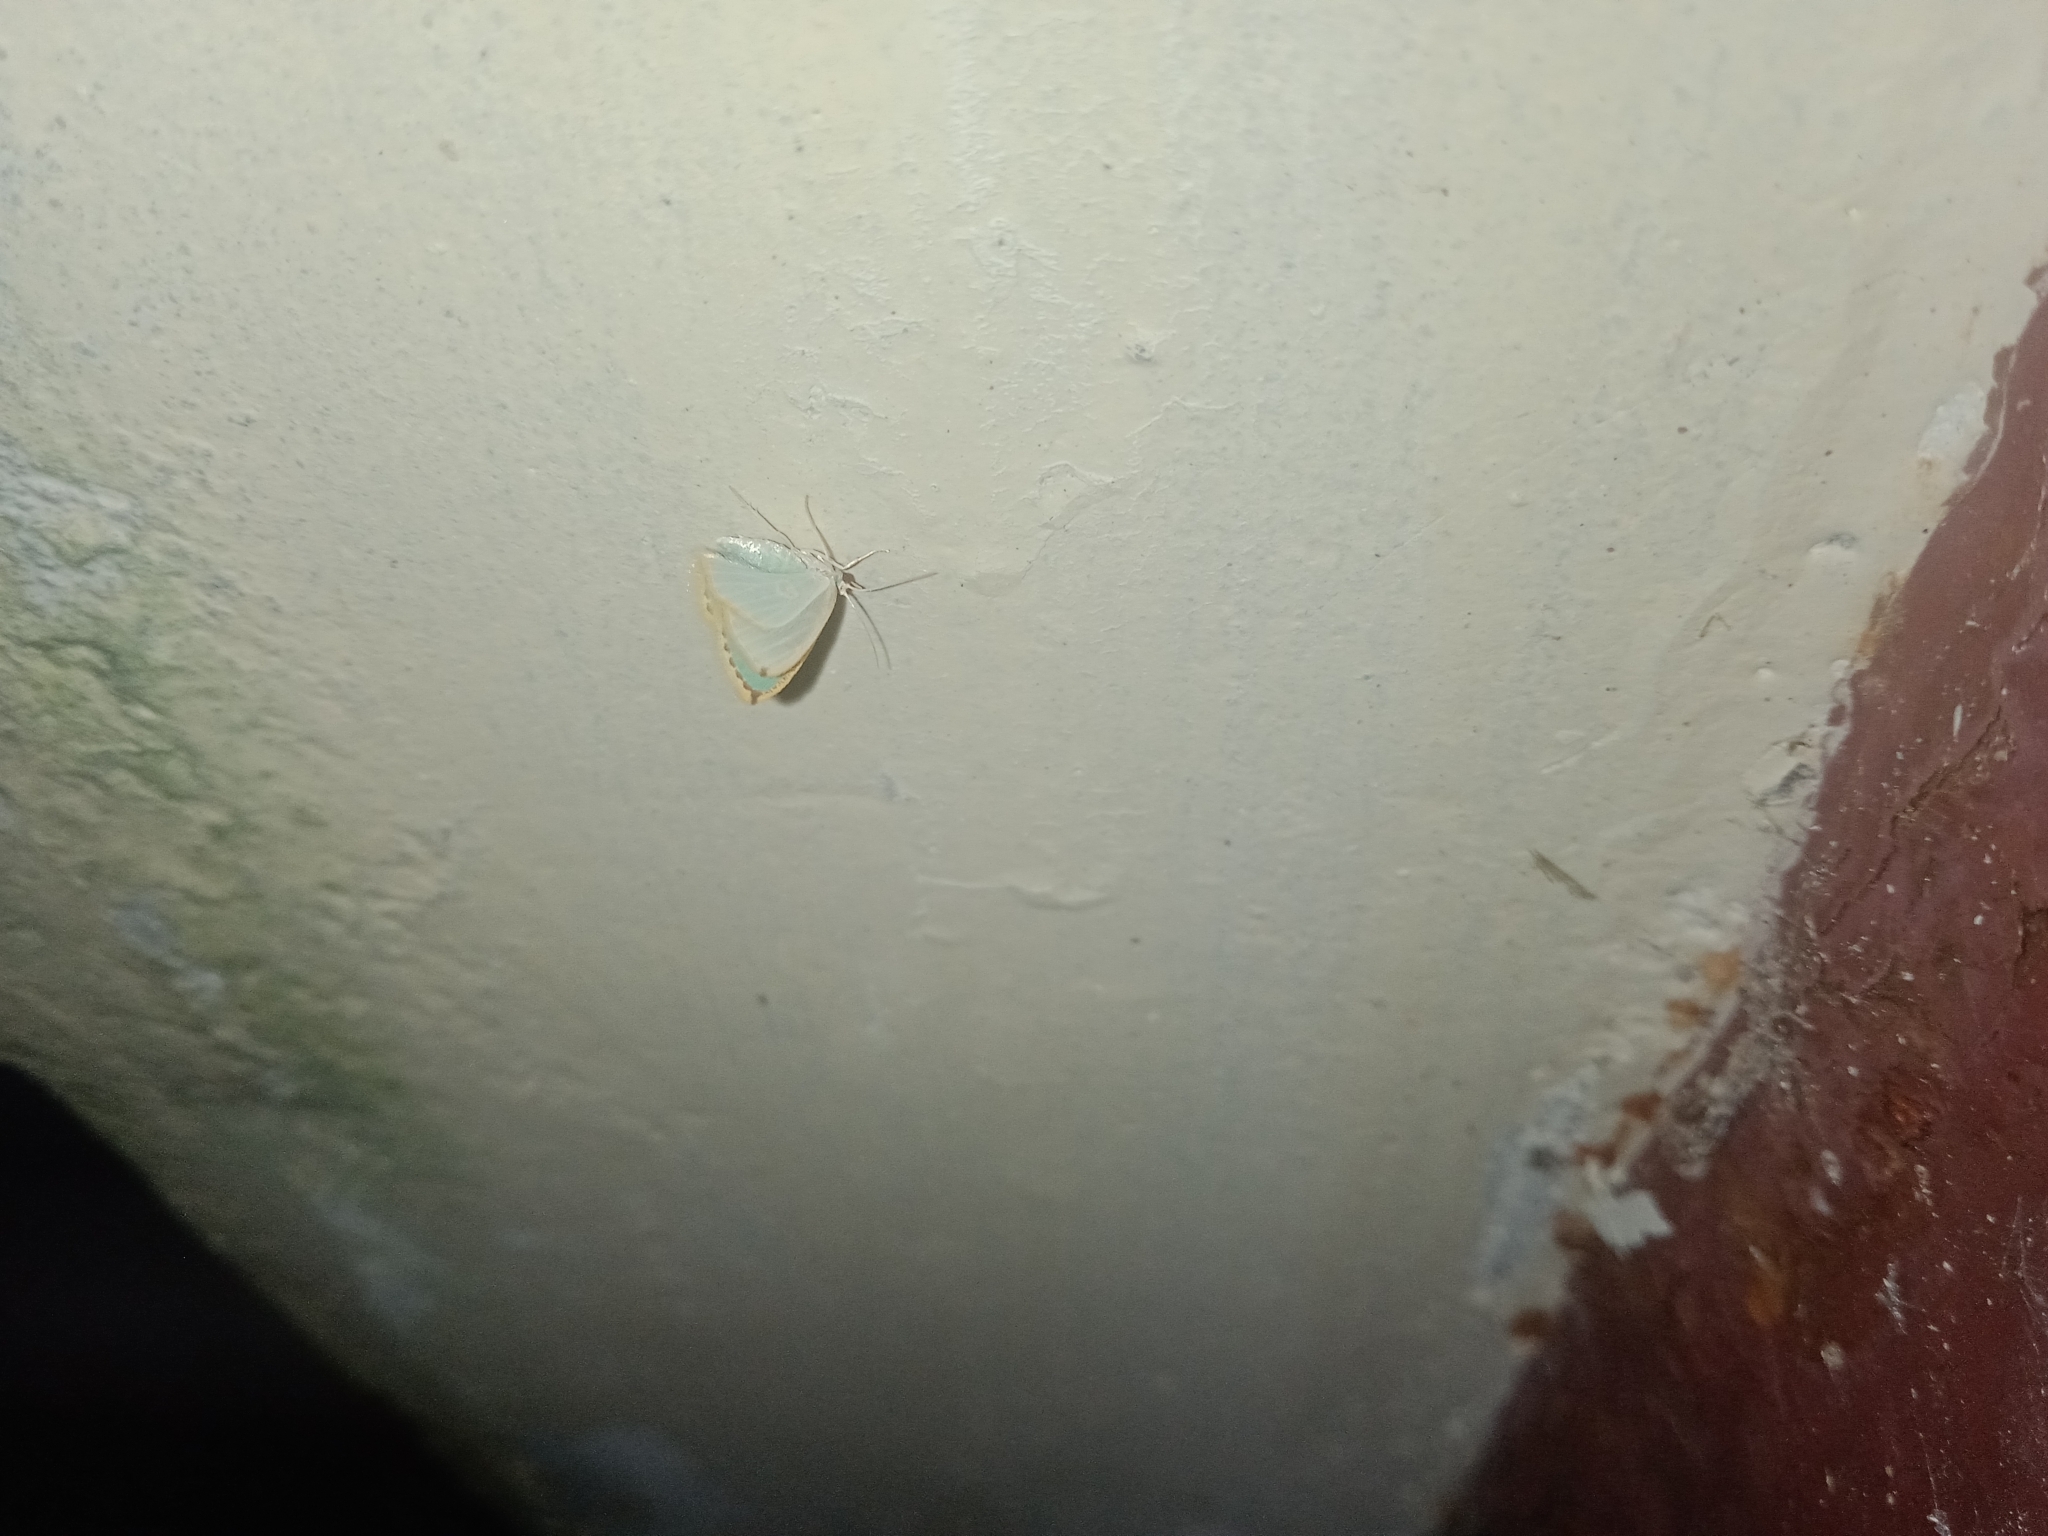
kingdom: Animalia
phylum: Arthropoda
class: Insecta
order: Lepidoptera
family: Geometridae
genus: Comostola
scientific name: Comostola laesaria
